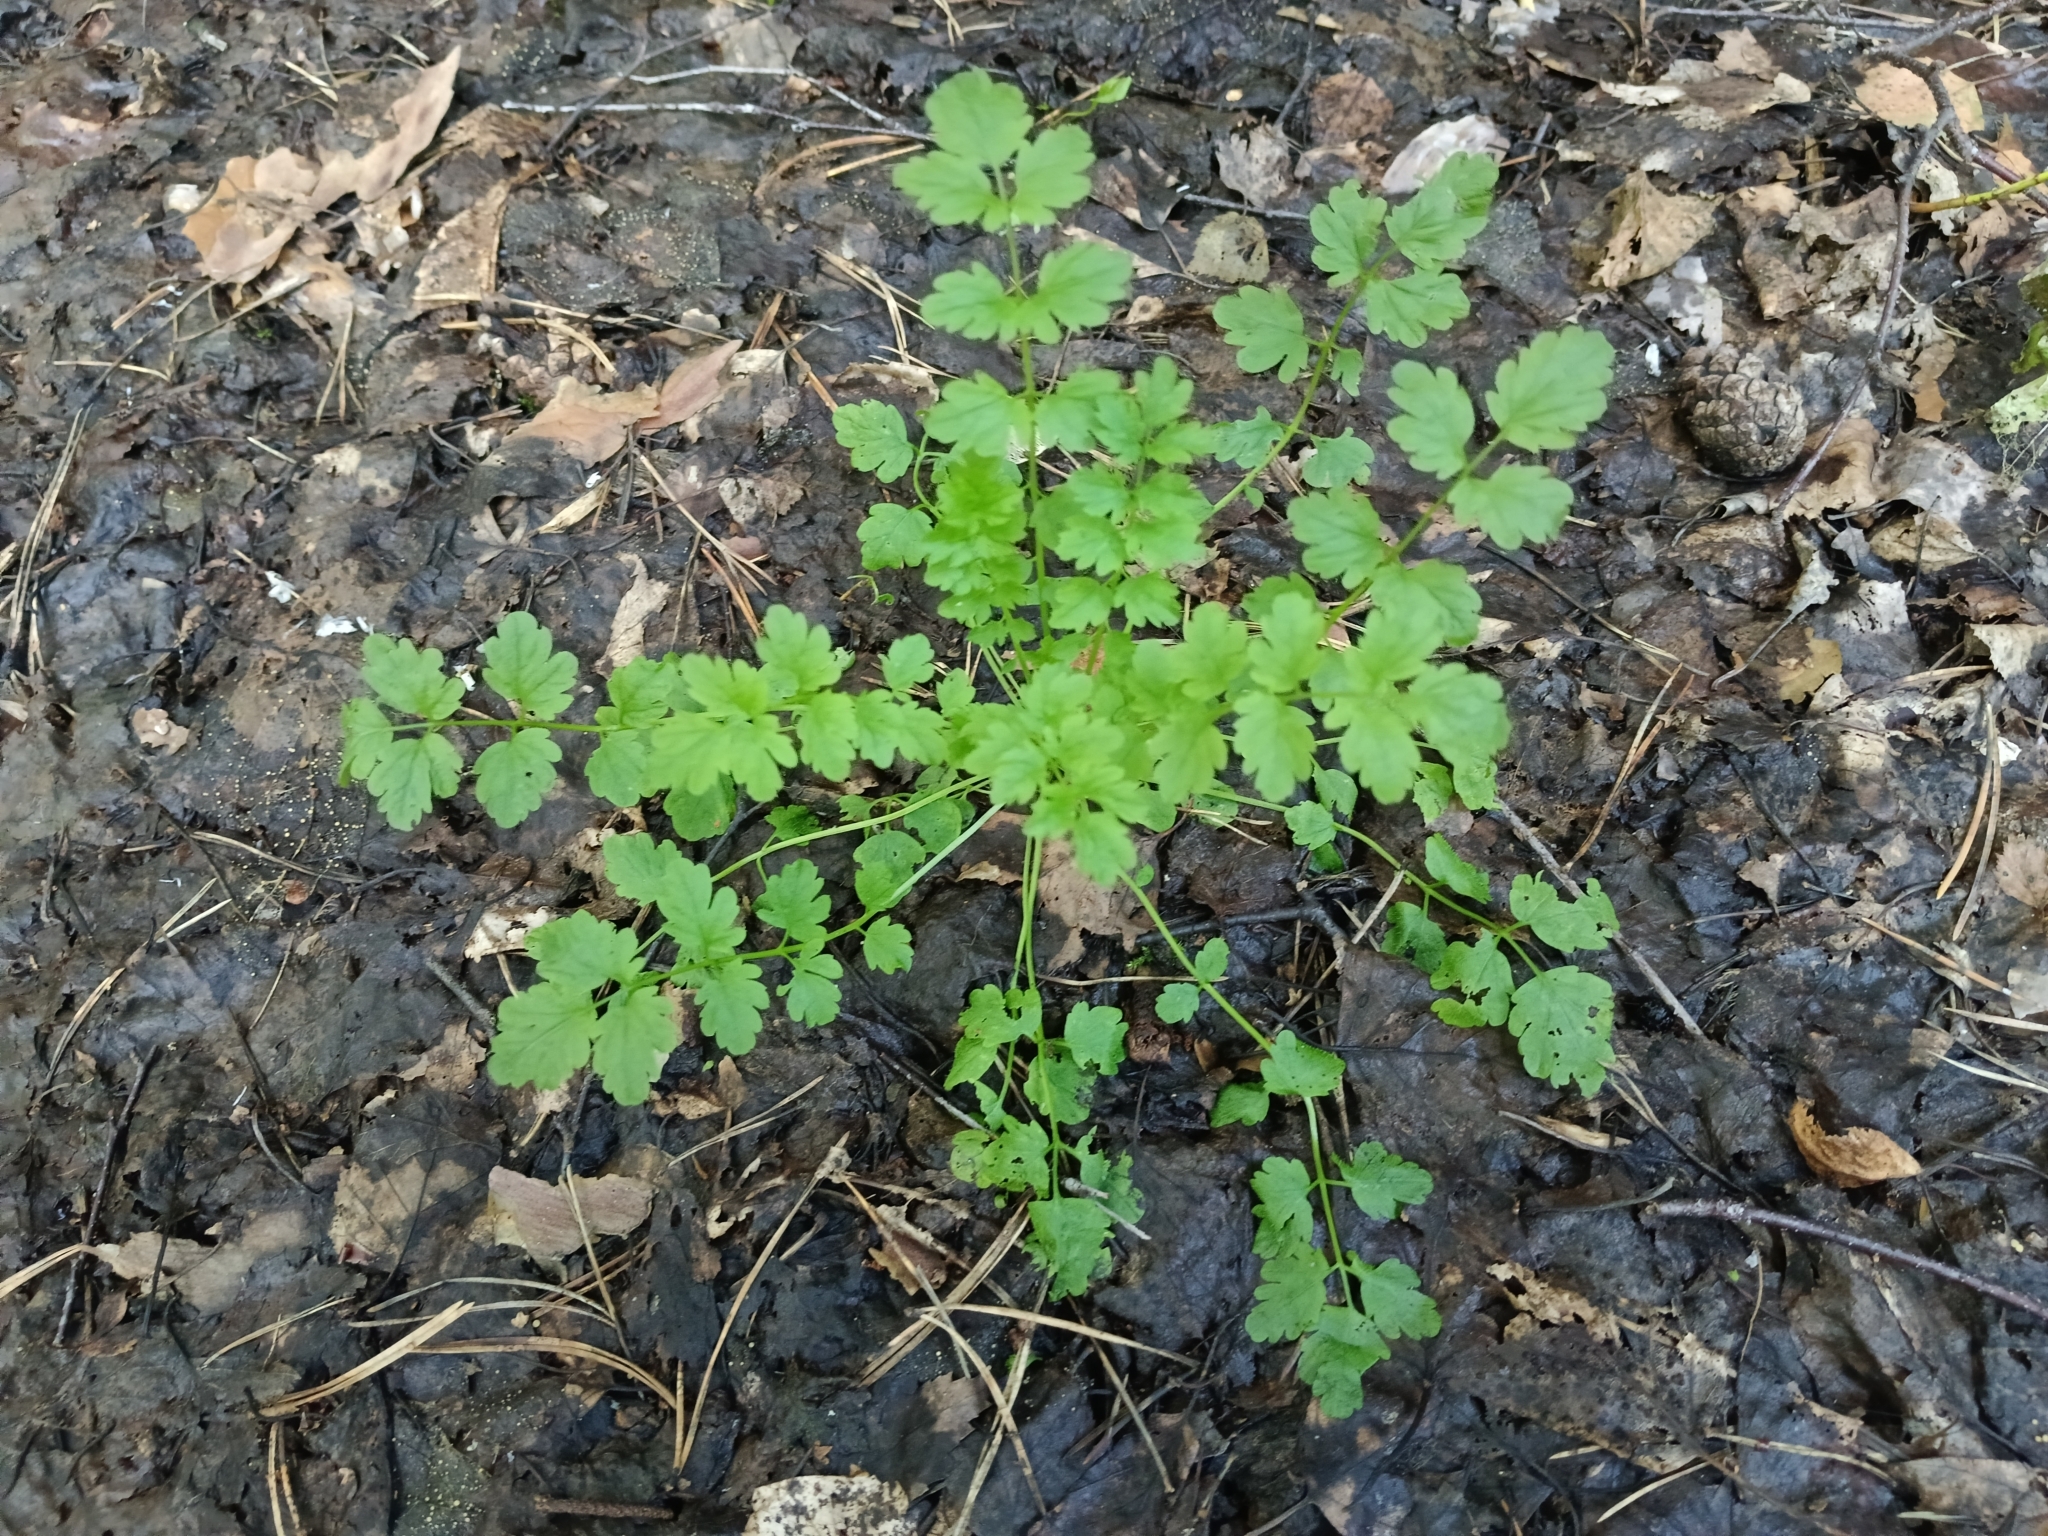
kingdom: Plantae
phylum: Tracheophyta
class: Magnoliopsida
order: Brassicales
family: Brassicaceae
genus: Cardamine
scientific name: Cardamine impatiens
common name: Narrow-leaved bitter-cress
